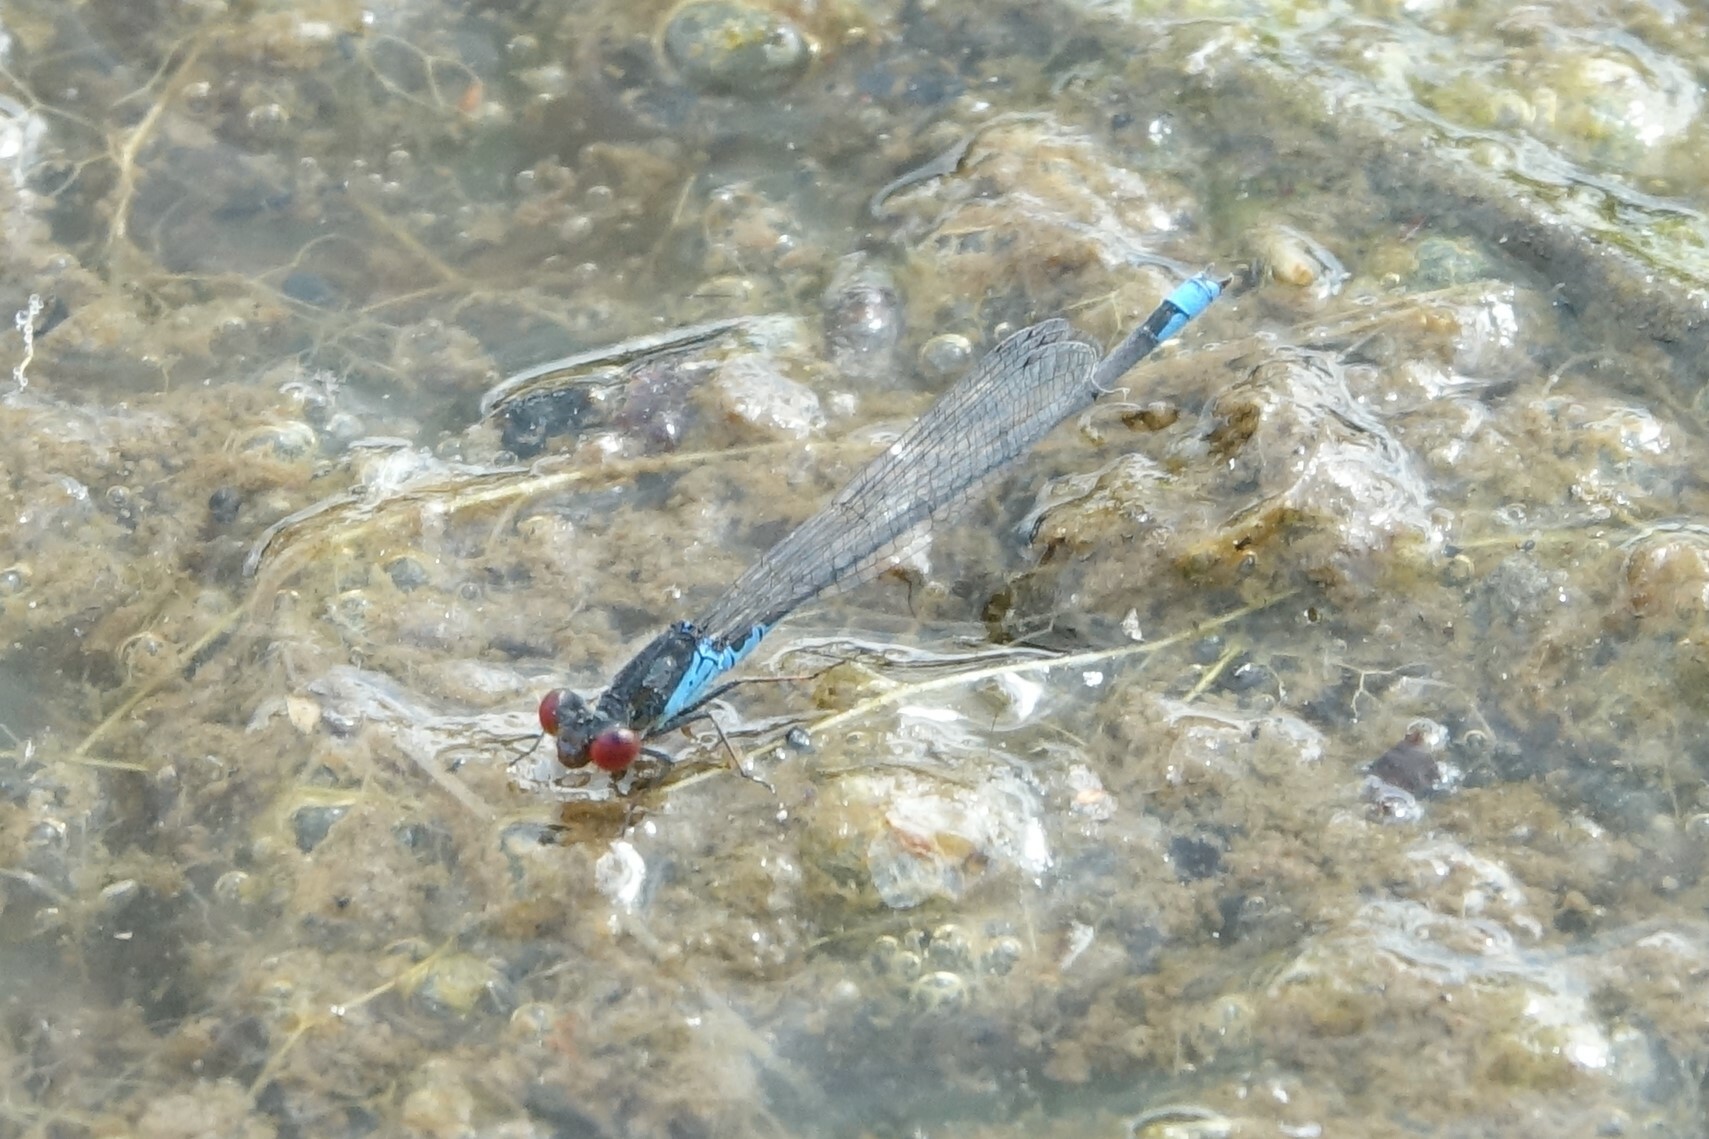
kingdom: Animalia
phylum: Arthropoda
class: Insecta
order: Odonata
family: Coenagrionidae
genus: Erythromma
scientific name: Erythromma viridulum
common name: Small red-eyed damselfly
